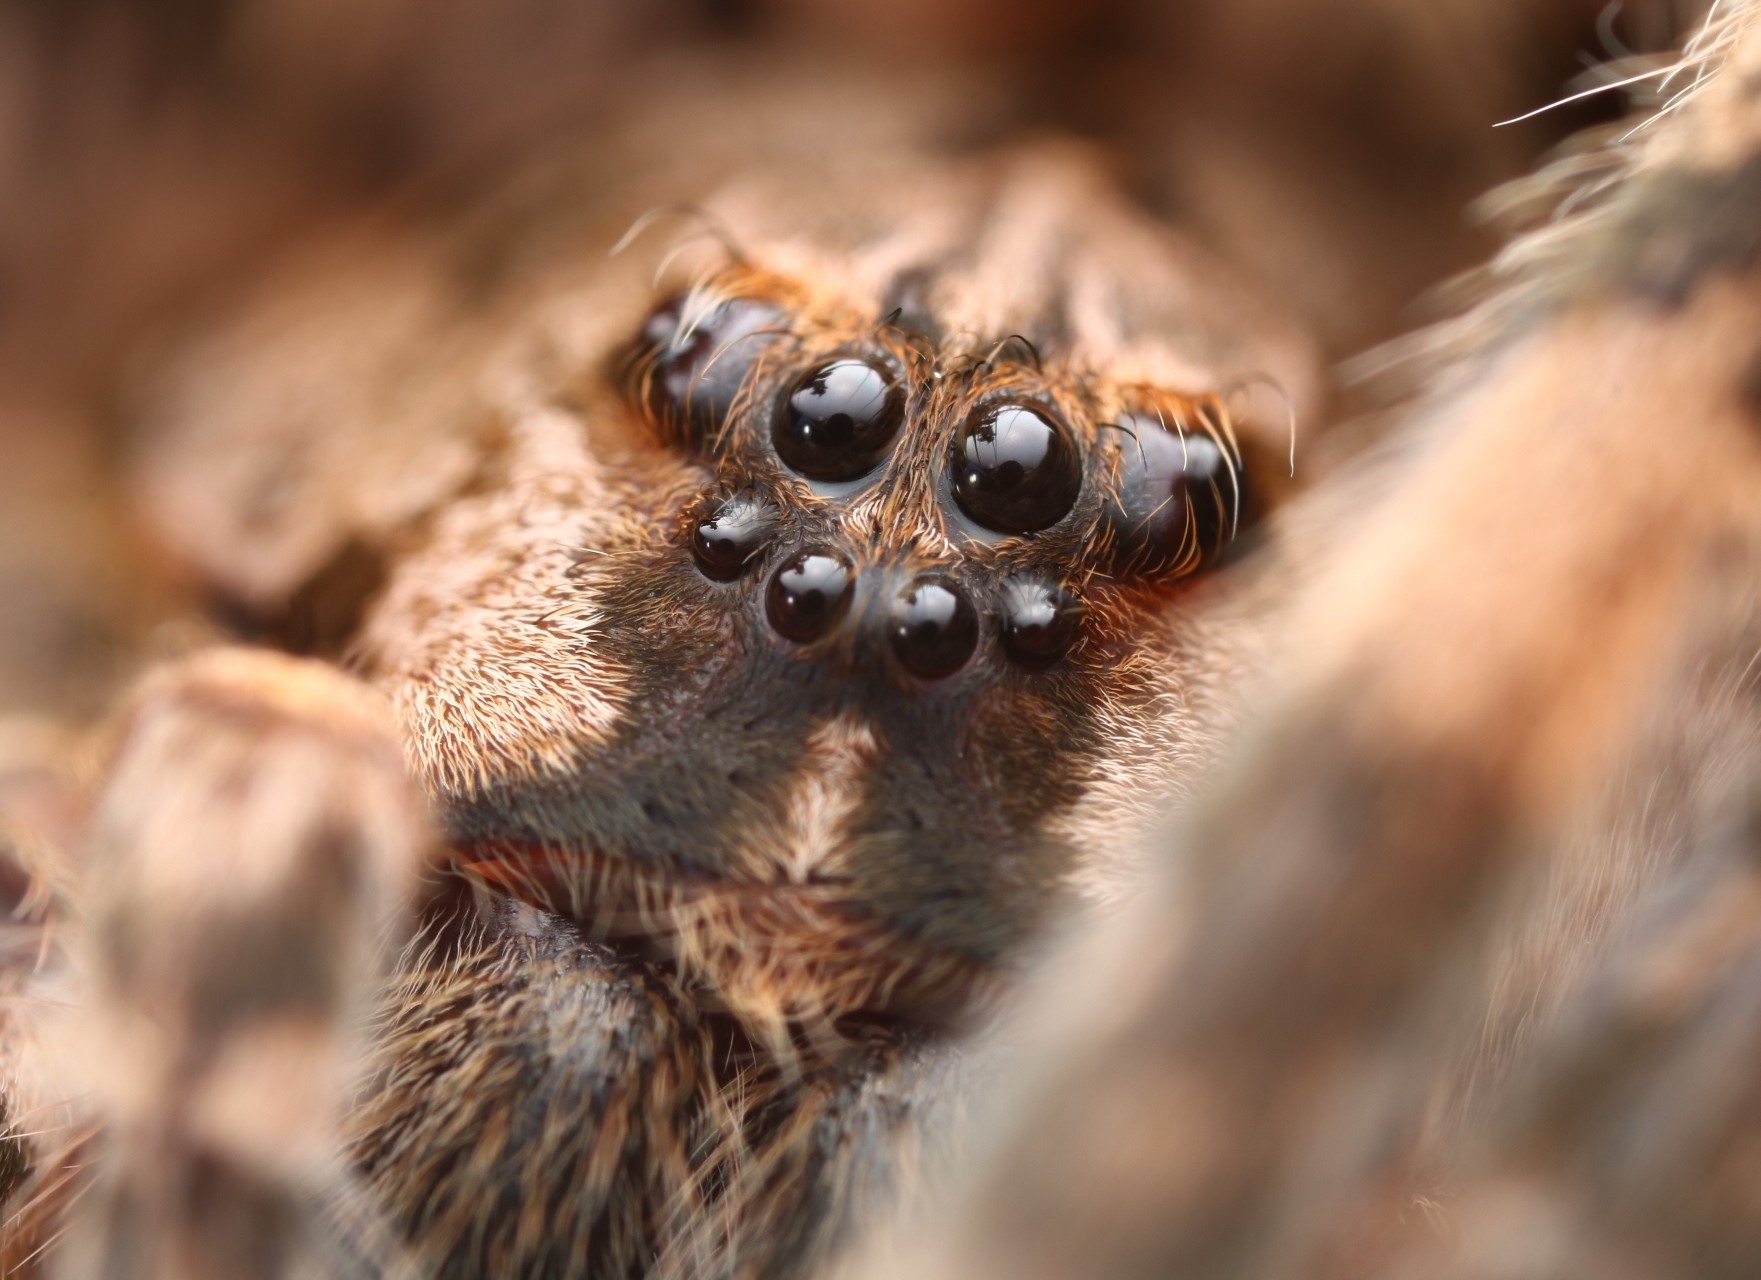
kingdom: Animalia
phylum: Arthropoda
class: Arachnida
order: Araneae
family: Pisauridae
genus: Dolomedes
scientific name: Dolomedes tenebrosus
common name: Dark fishing spider
